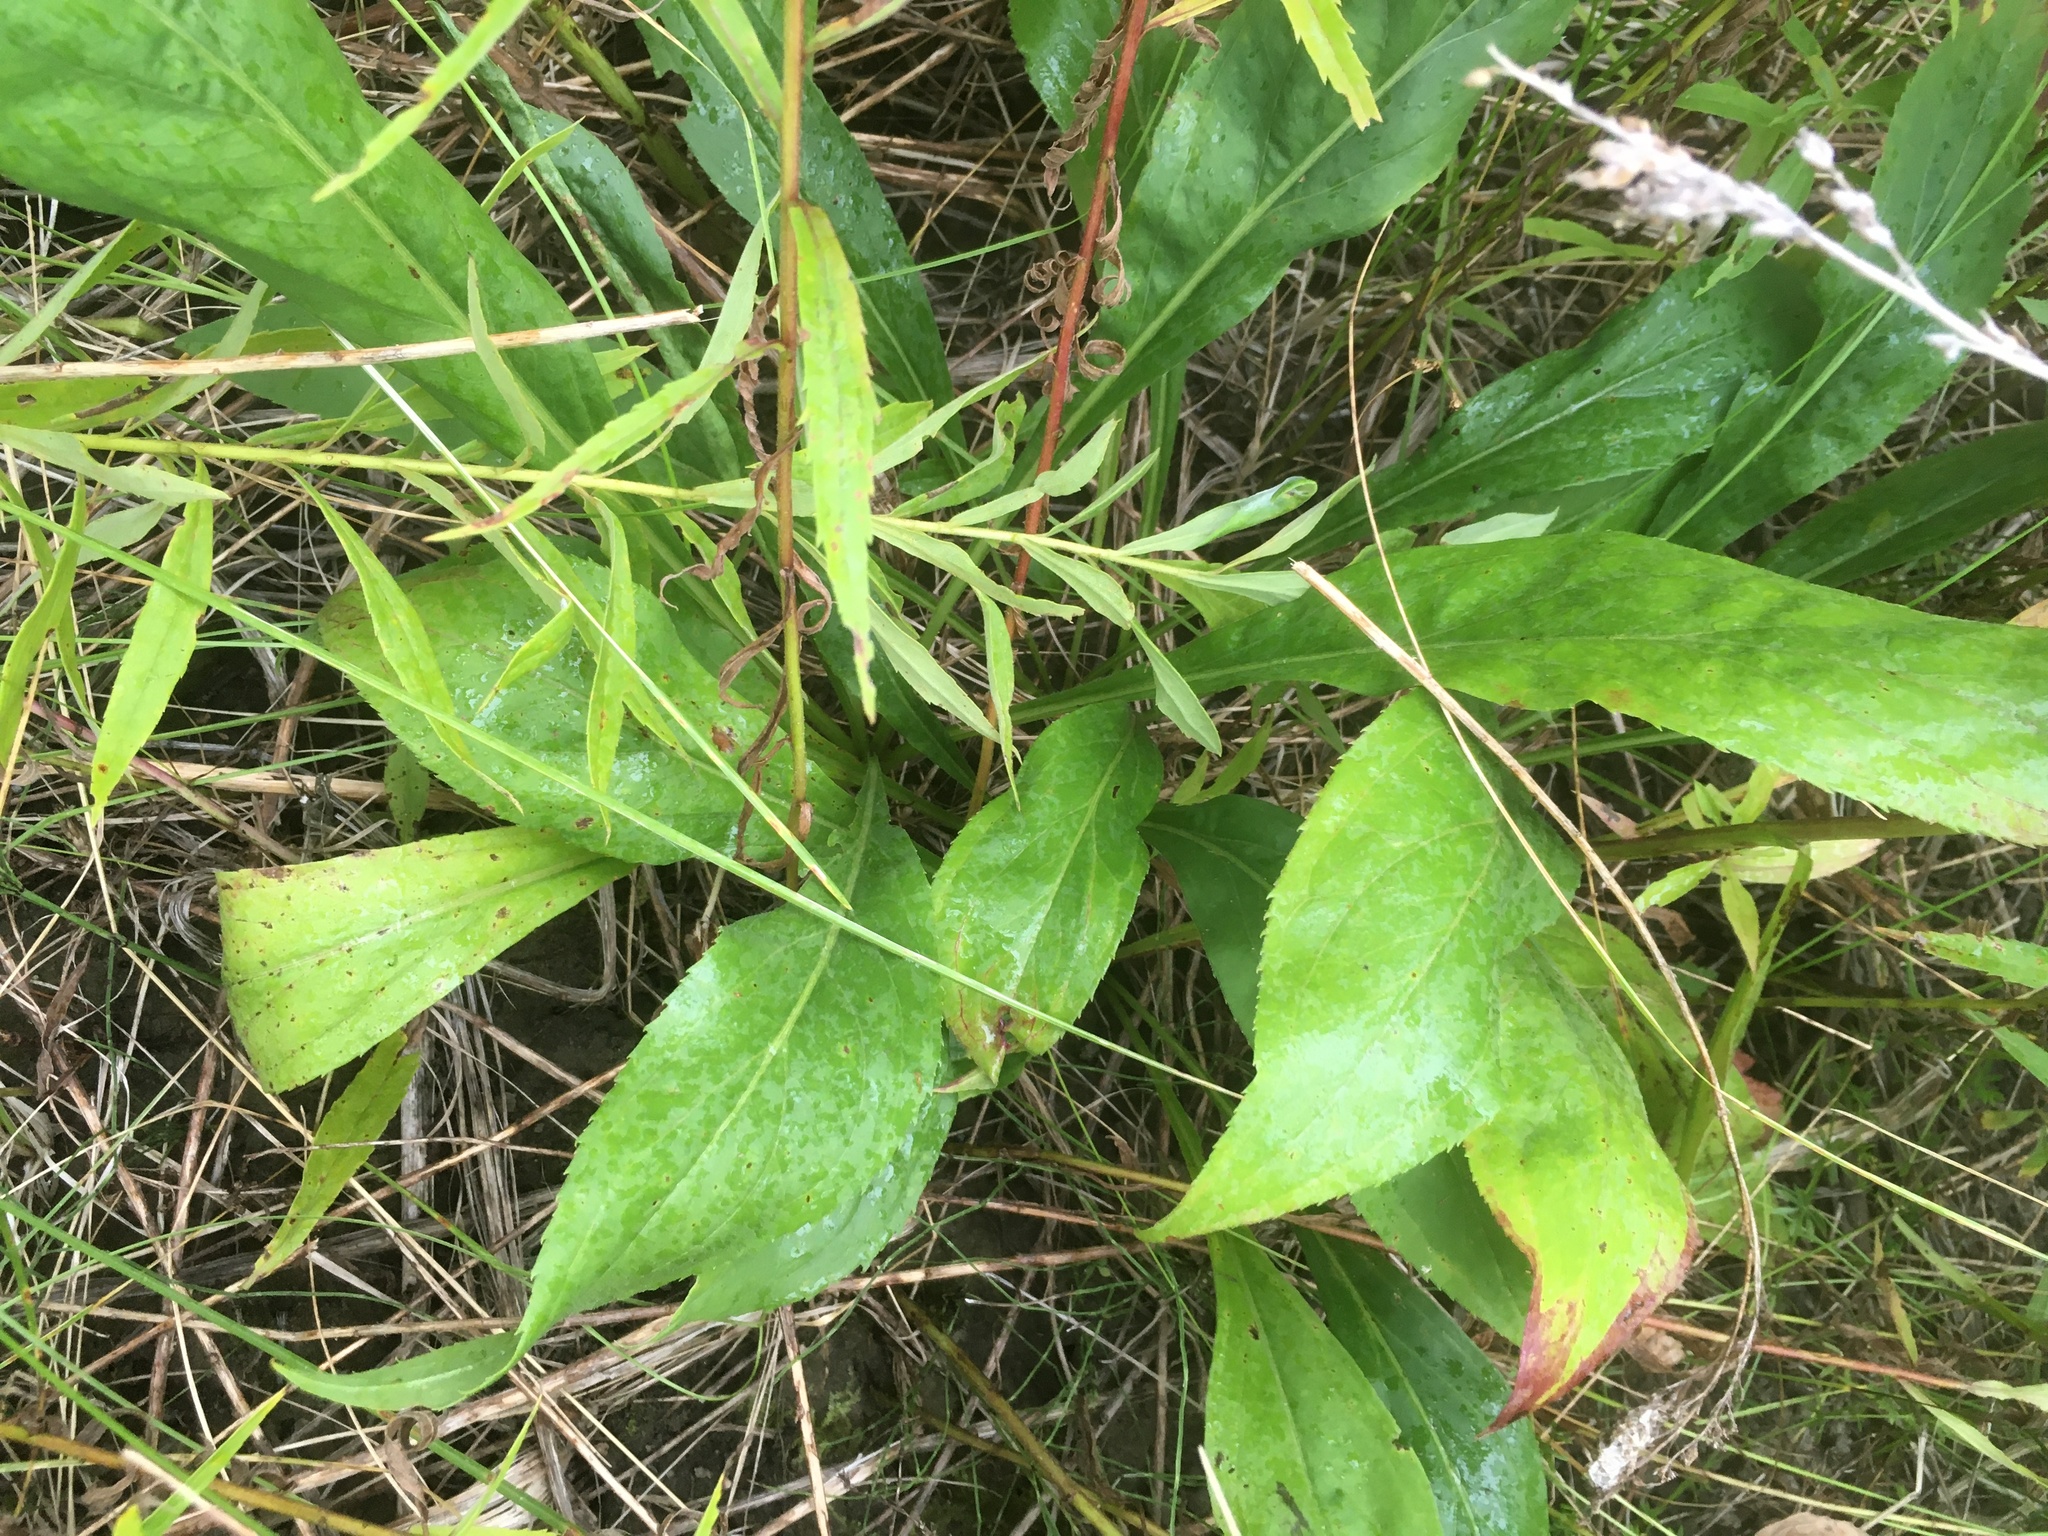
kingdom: Plantae
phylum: Tracheophyta
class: Magnoliopsida
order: Asterales
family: Asteraceae
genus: Solidago
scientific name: Solidago juncea
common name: Early goldenrod
